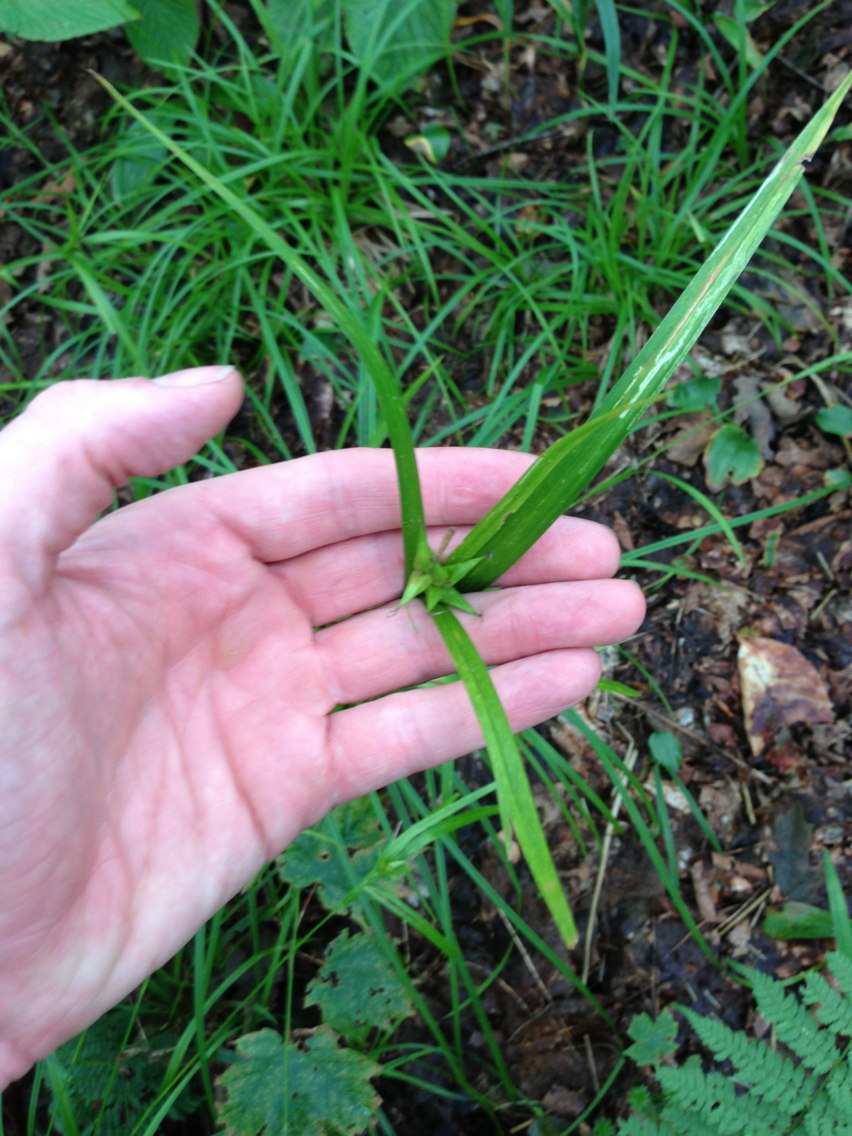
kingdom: Plantae
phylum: Tracheophyta
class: Liliopsida
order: Poales
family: Cyperaceae
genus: Carex
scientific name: Carex intumescens
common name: Greater bladder sedge
